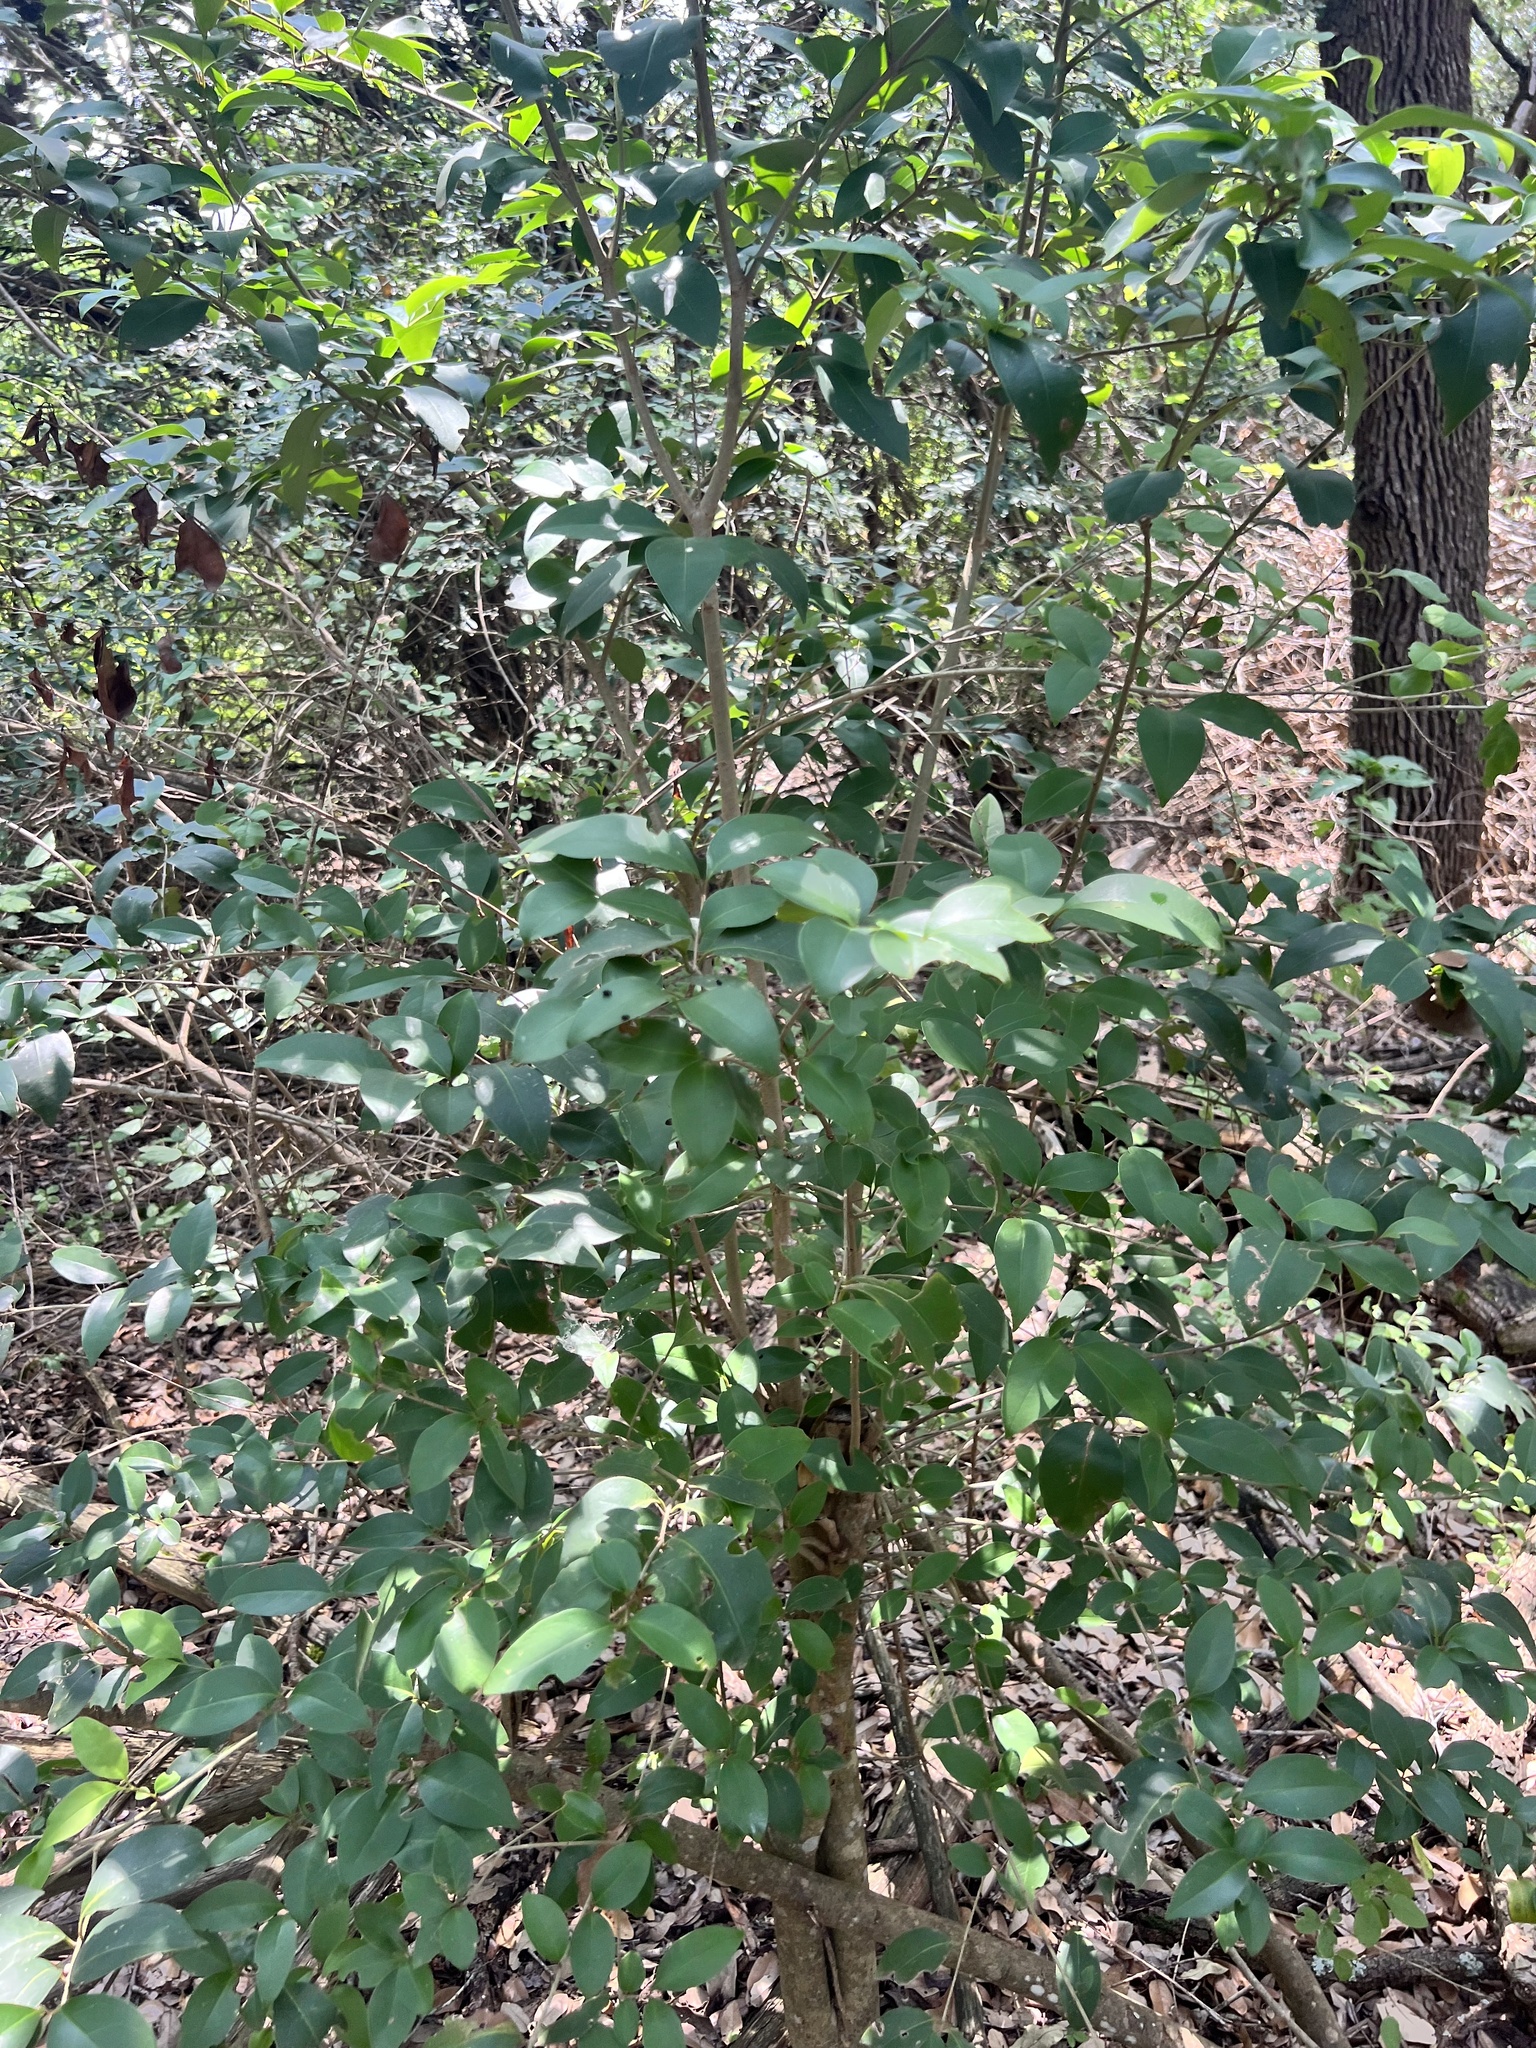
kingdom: Plantae
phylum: Tracheophyta
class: Magnoliopsida
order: Lamiales
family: Oleaceae
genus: Ligustrum
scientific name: Ligustrum lucidum
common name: Glossy privet
